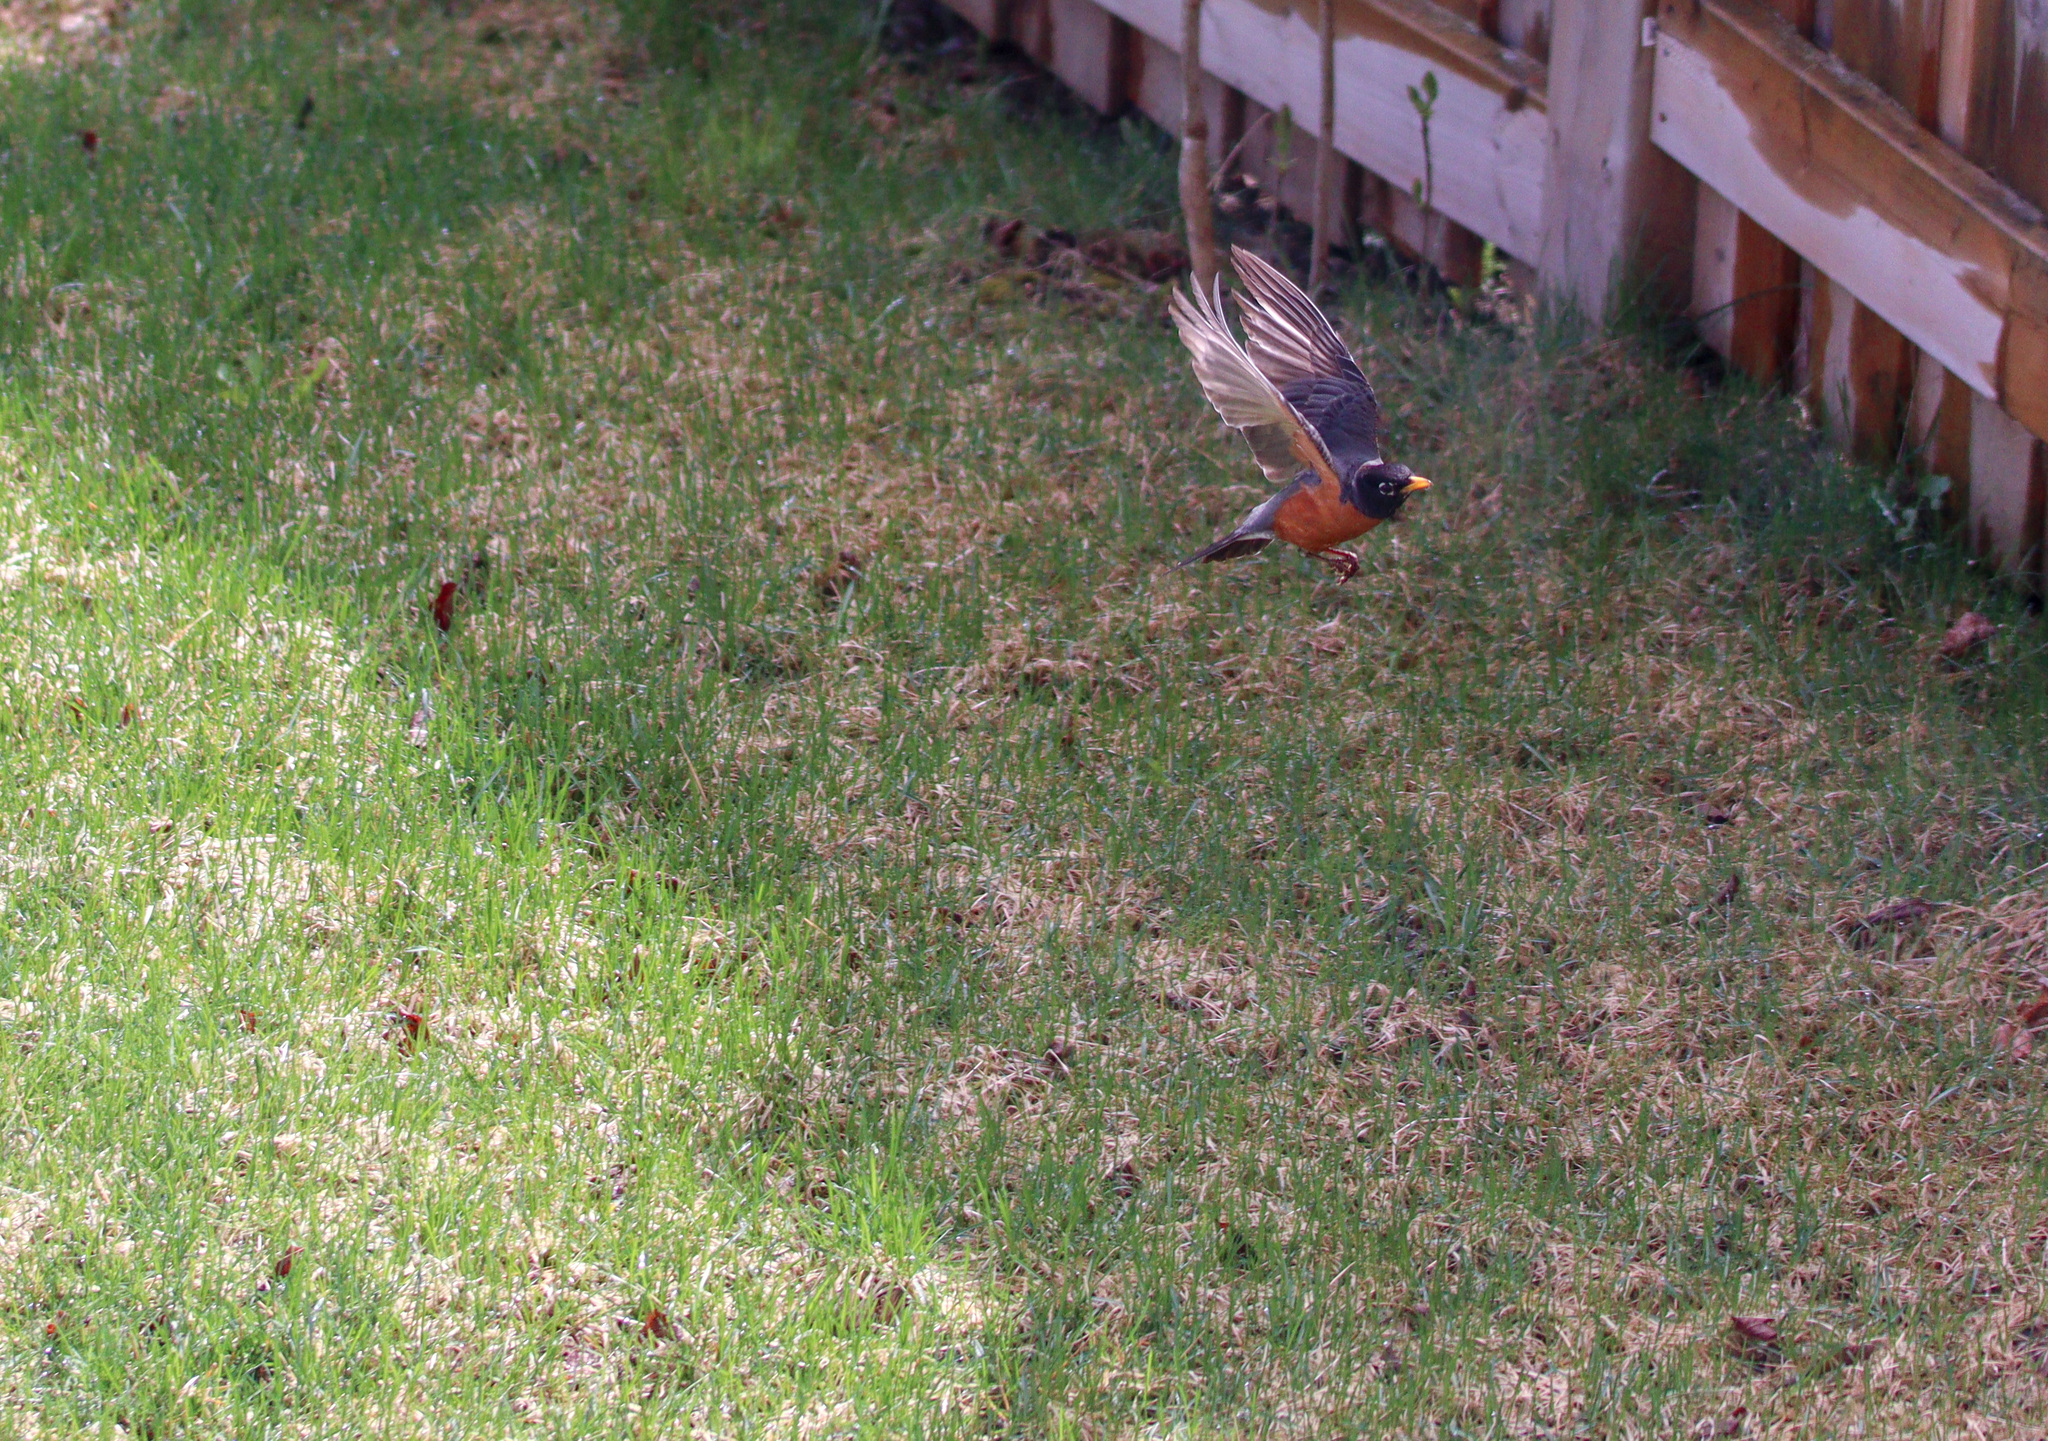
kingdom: Animalia
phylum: Chordata
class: Aves
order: Passeriformes
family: Turdidae
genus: Turdus
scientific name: Turdus migratorius
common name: American robin
